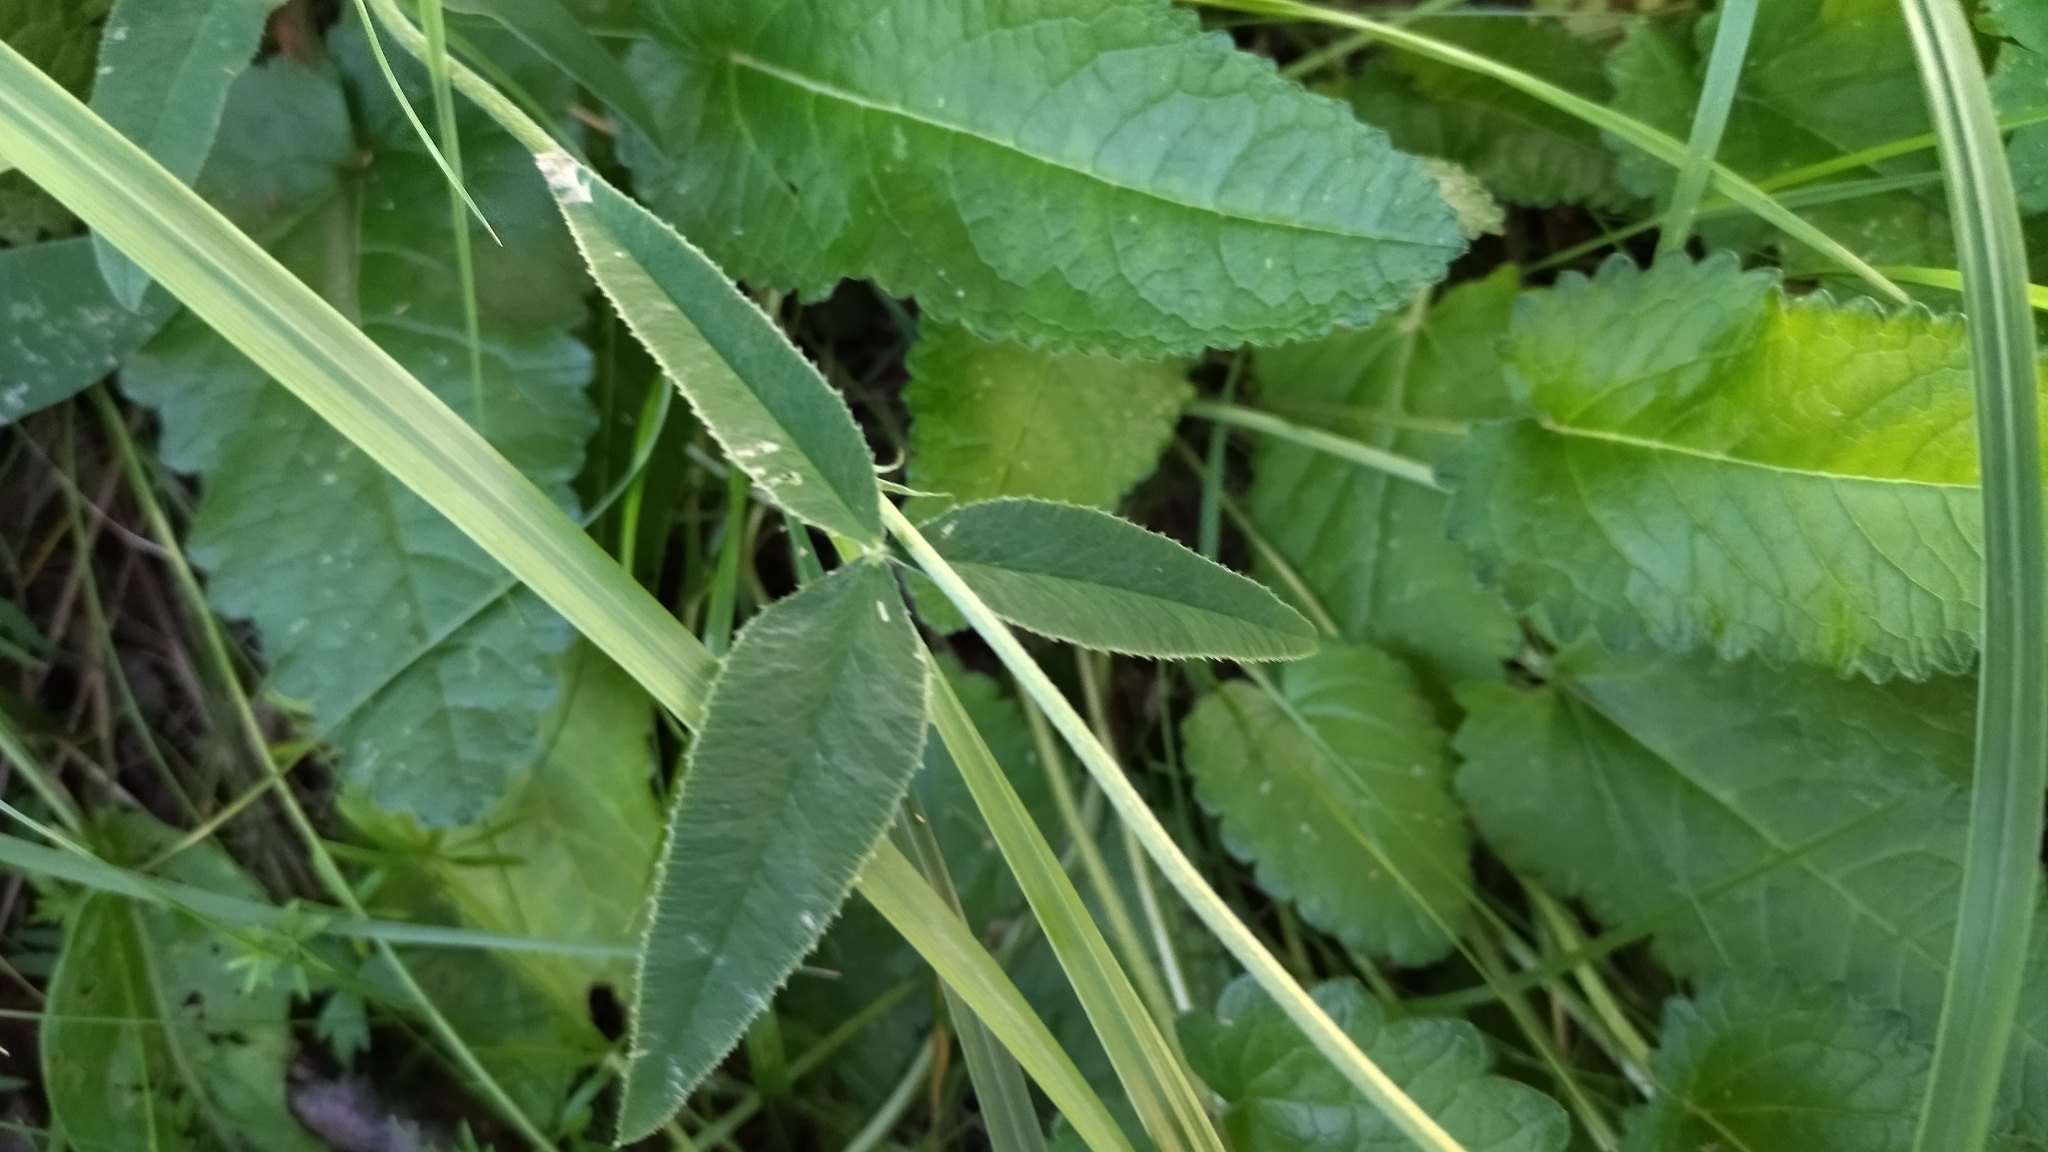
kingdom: Plantae
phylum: Tracheophyta
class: Magnoliopsida
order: Fabales
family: Fabaceae
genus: Trifolium
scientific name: Trifolium montanum
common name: Mountain clover
